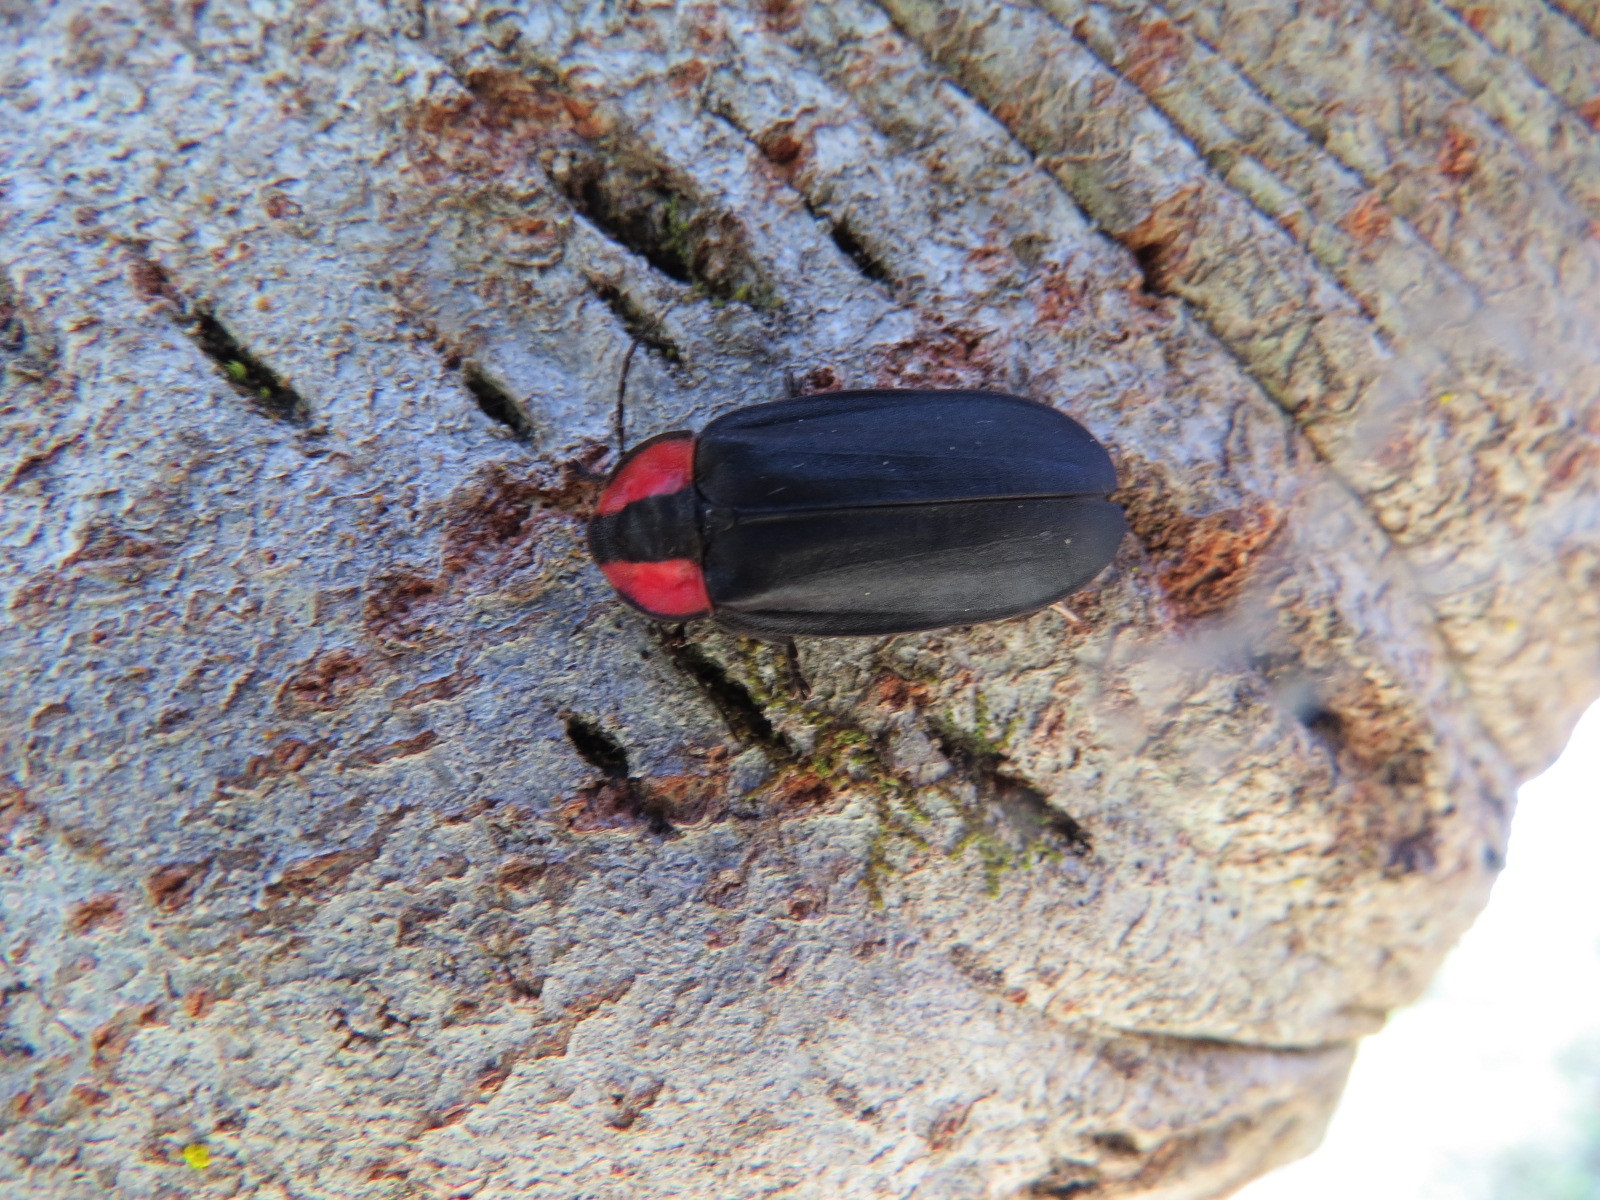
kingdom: Animalia
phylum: Arthropoda
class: Insecta
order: Coleoptera
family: Lampyridae
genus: Photinus
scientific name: Photinus californica
